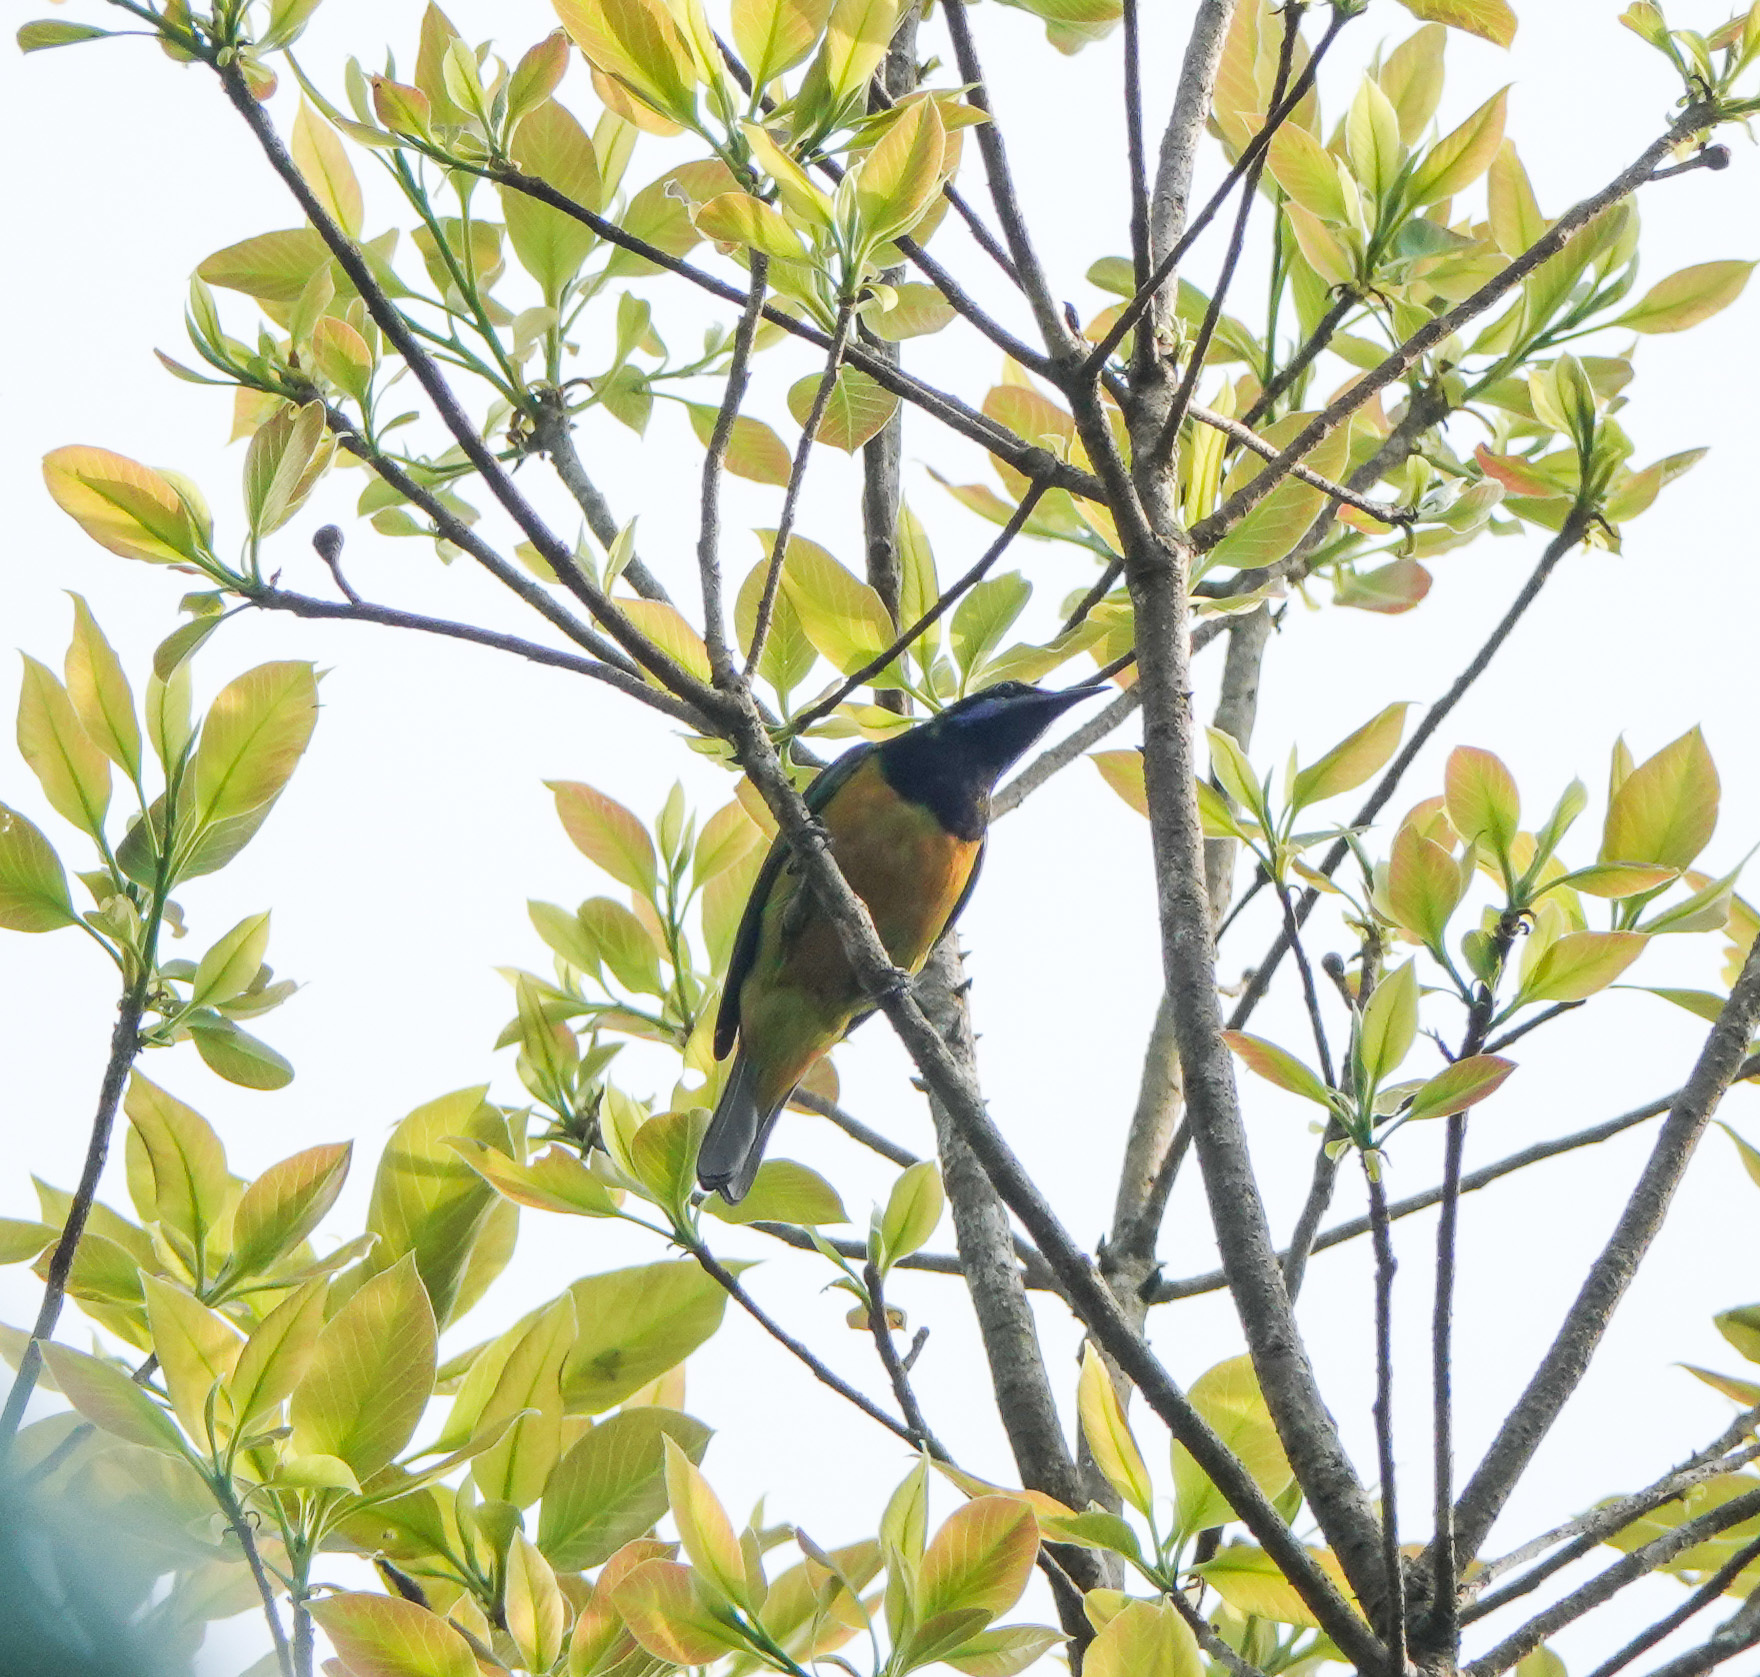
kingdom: Animalia
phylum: Chordata
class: Aves
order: Passeriformes
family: Chloropseidae
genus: Chloropsis
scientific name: Chloropsis hardwickii
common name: Orange-bellied leafbird
